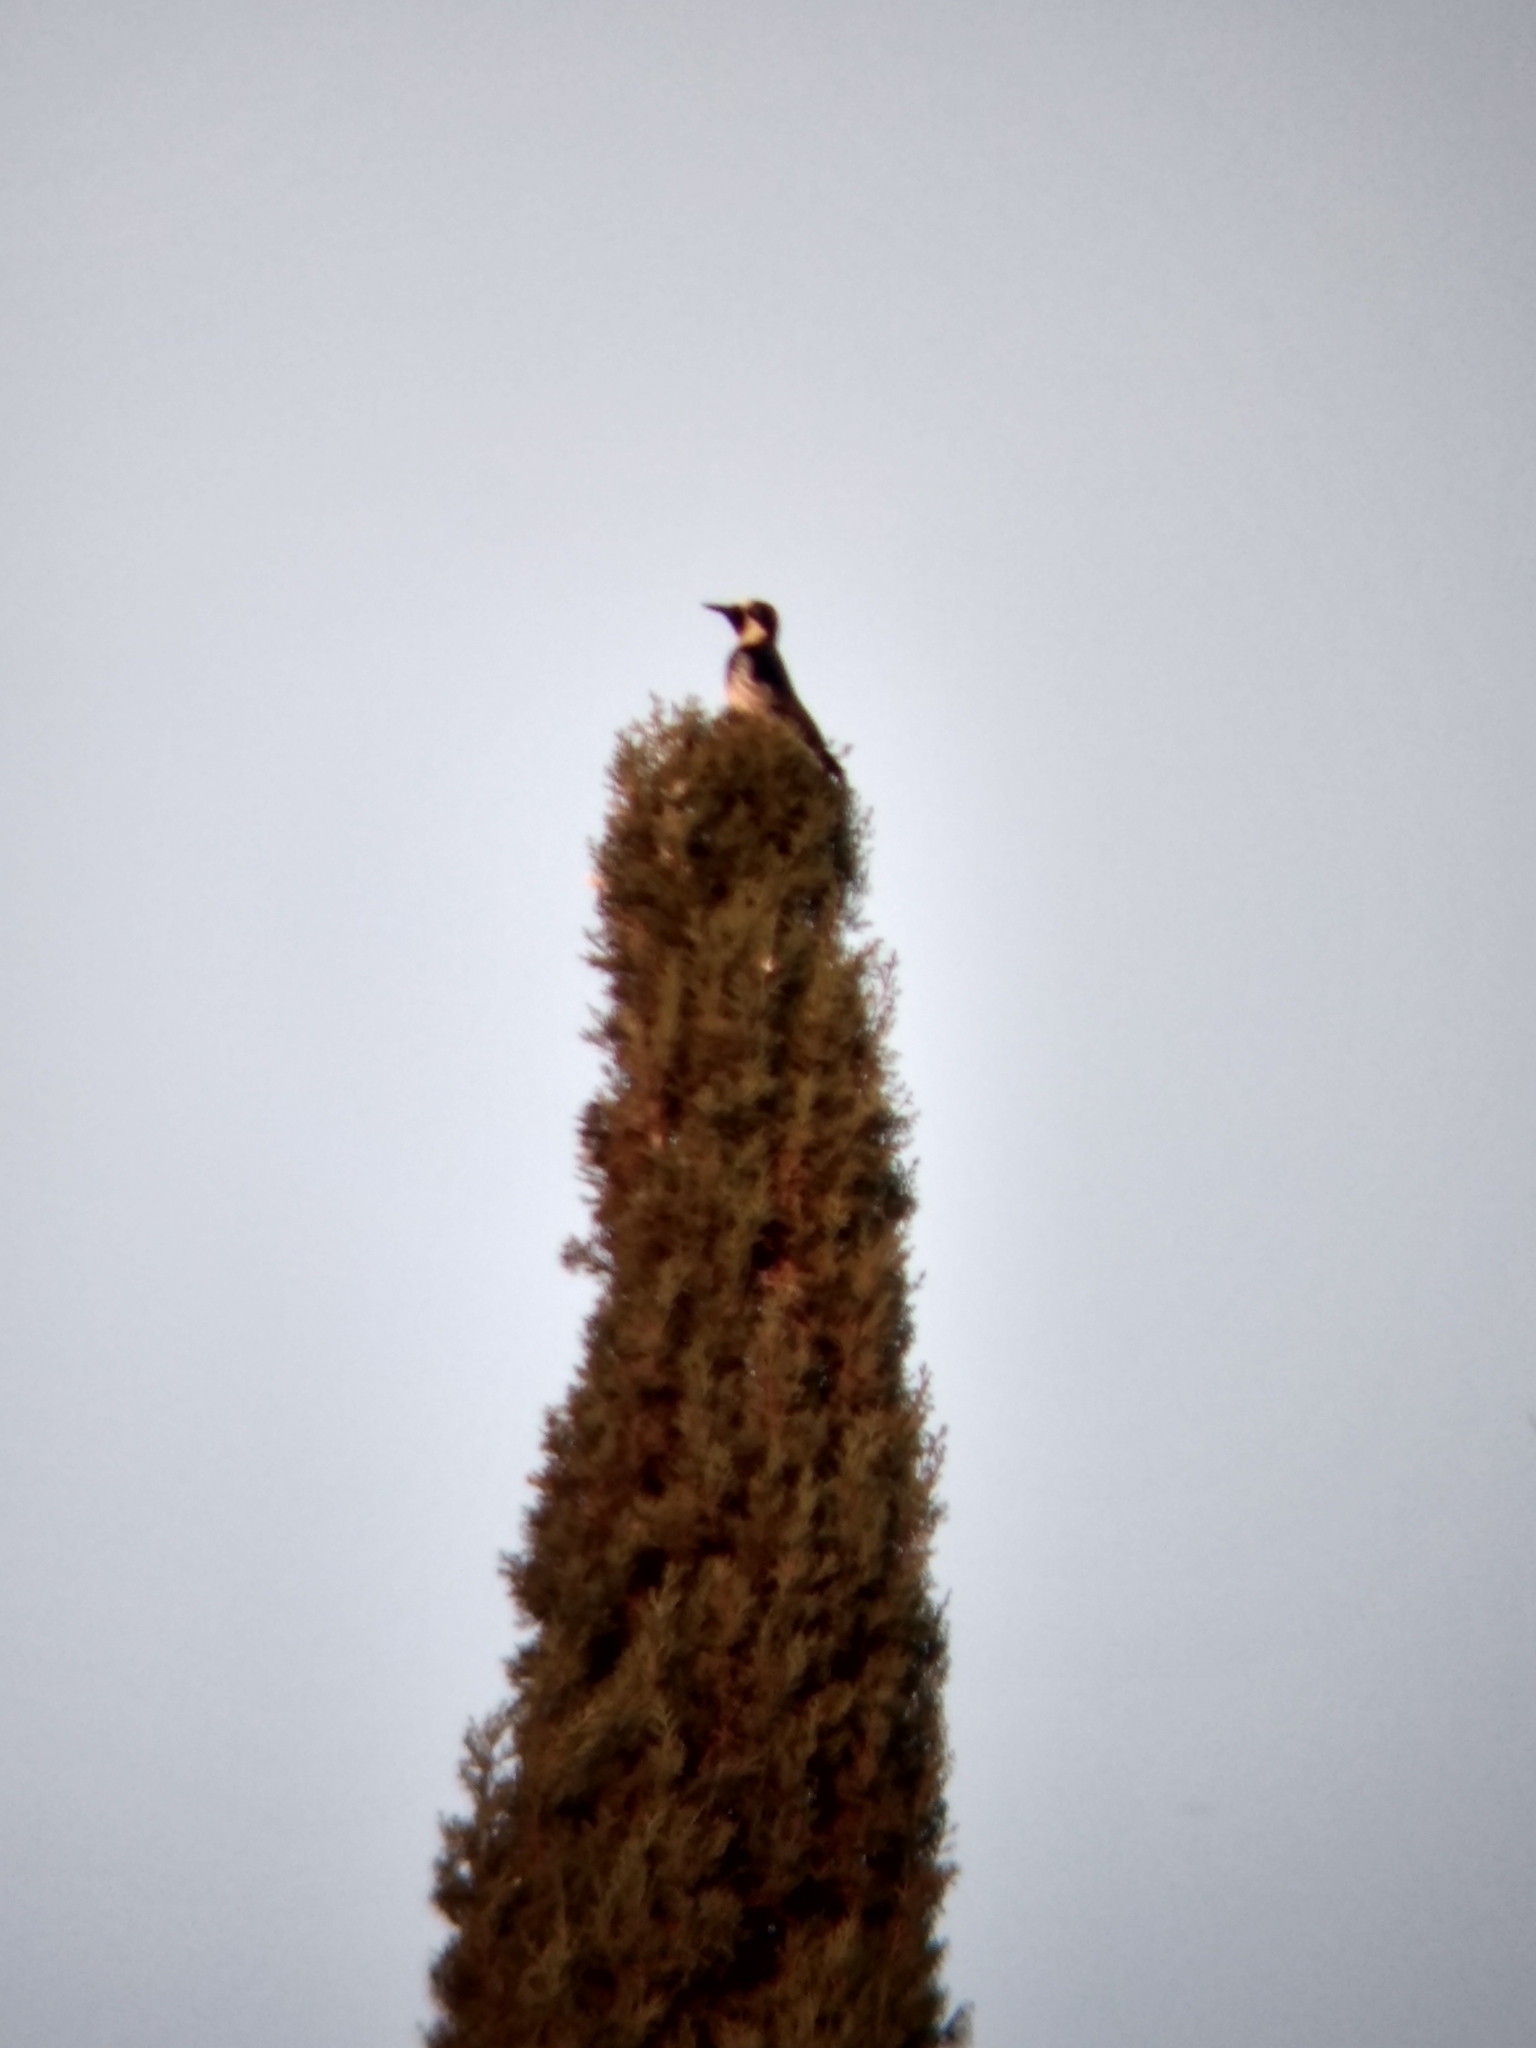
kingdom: Animalia
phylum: Chordata
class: Aves
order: Piciformes
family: Picidae
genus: Melanerpes
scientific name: Melanerpes formicivorus
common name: Acorn woodpecker
